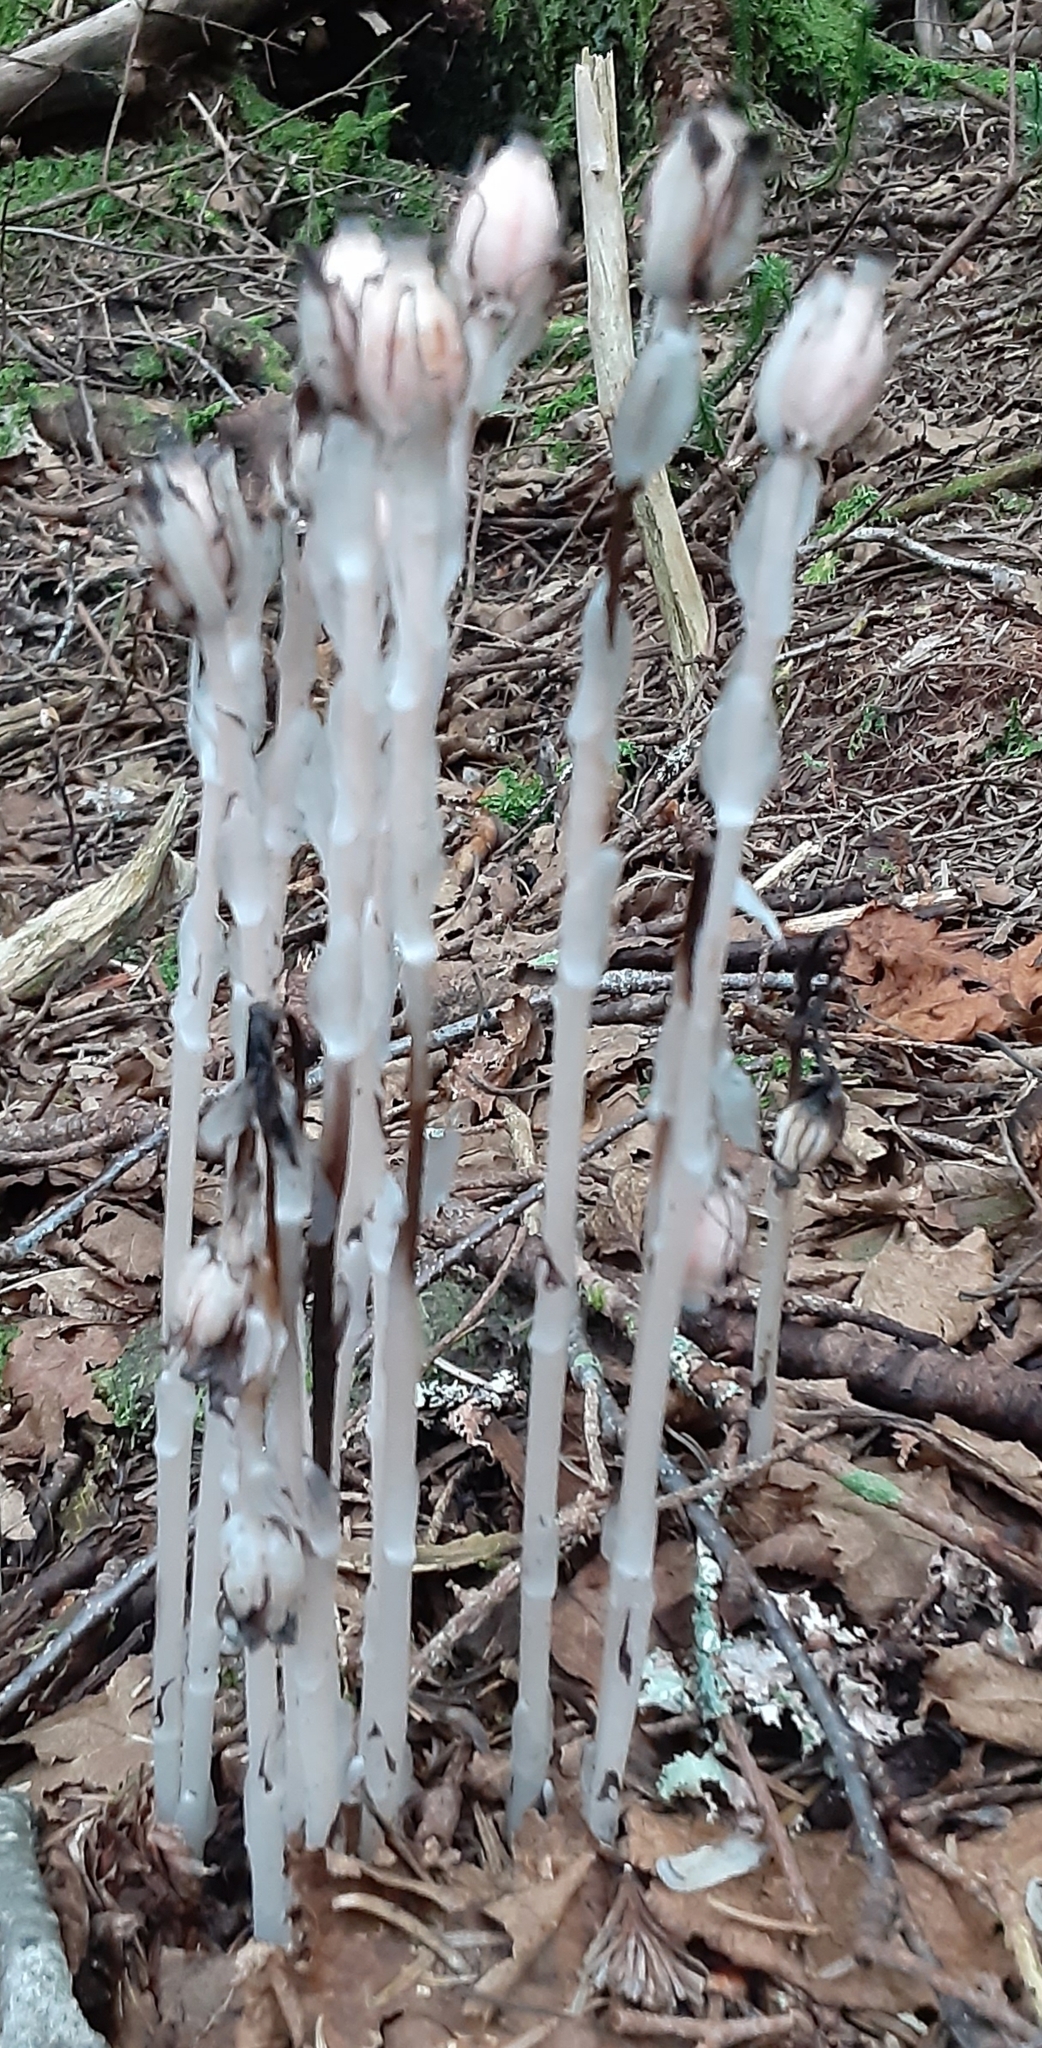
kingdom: Plantae
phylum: Tracheophyta
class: Magnoliopsida
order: Ericales
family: Ericaceae
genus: Monotropa
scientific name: Monotropa uniflora
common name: Convulsion root
